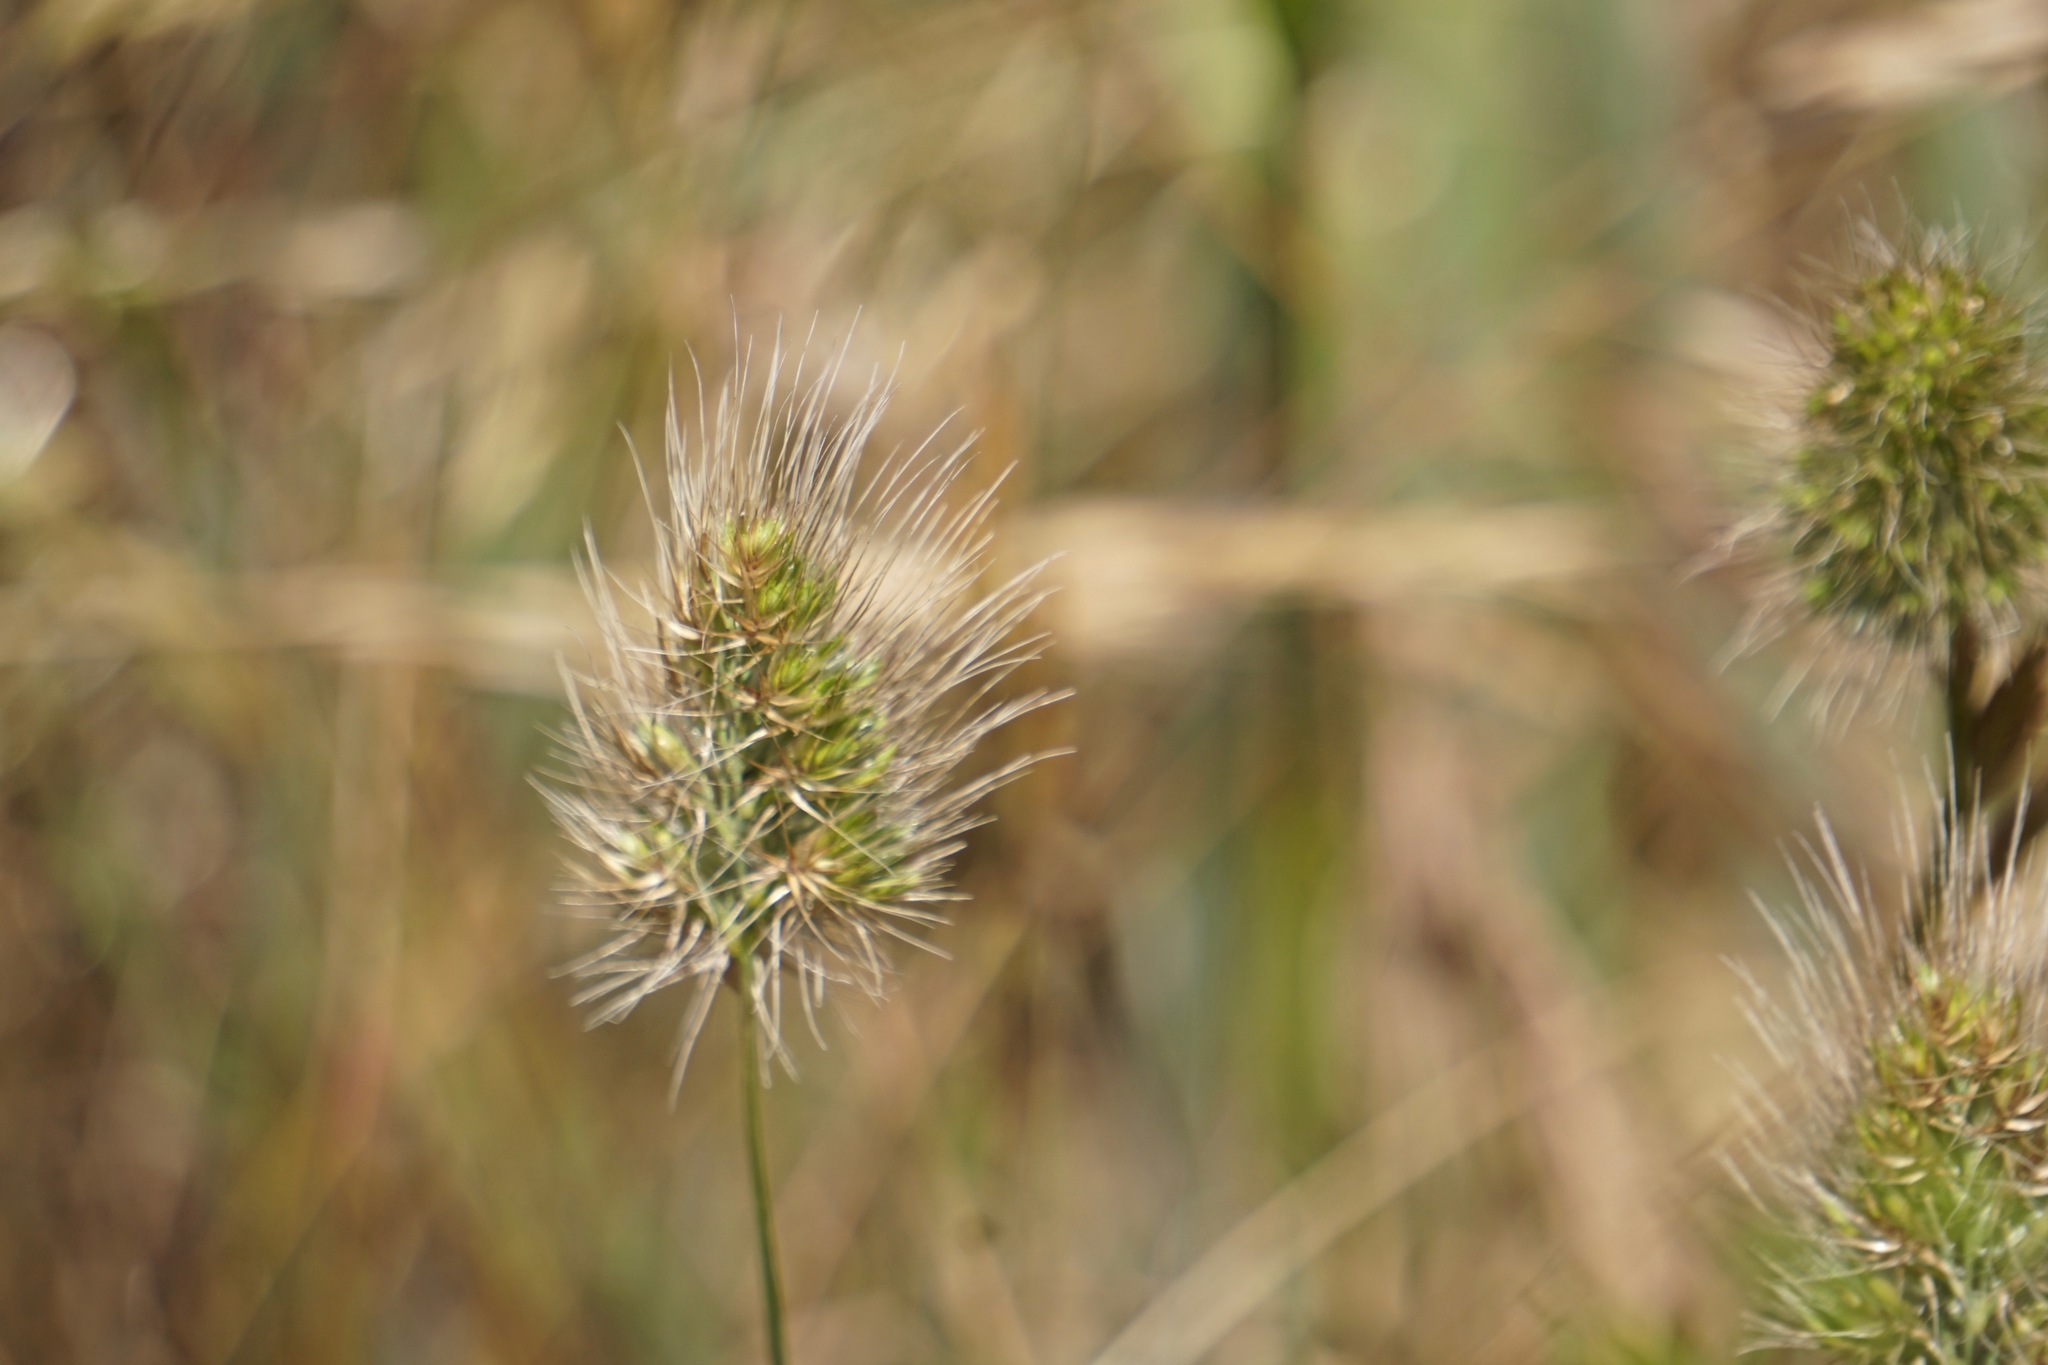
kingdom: Plantae
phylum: Tracheophyta
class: Liliopsida
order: Poales
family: Poaceae
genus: Cynosurus
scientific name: Cynosurus echinatus
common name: Rough dog's-tail
